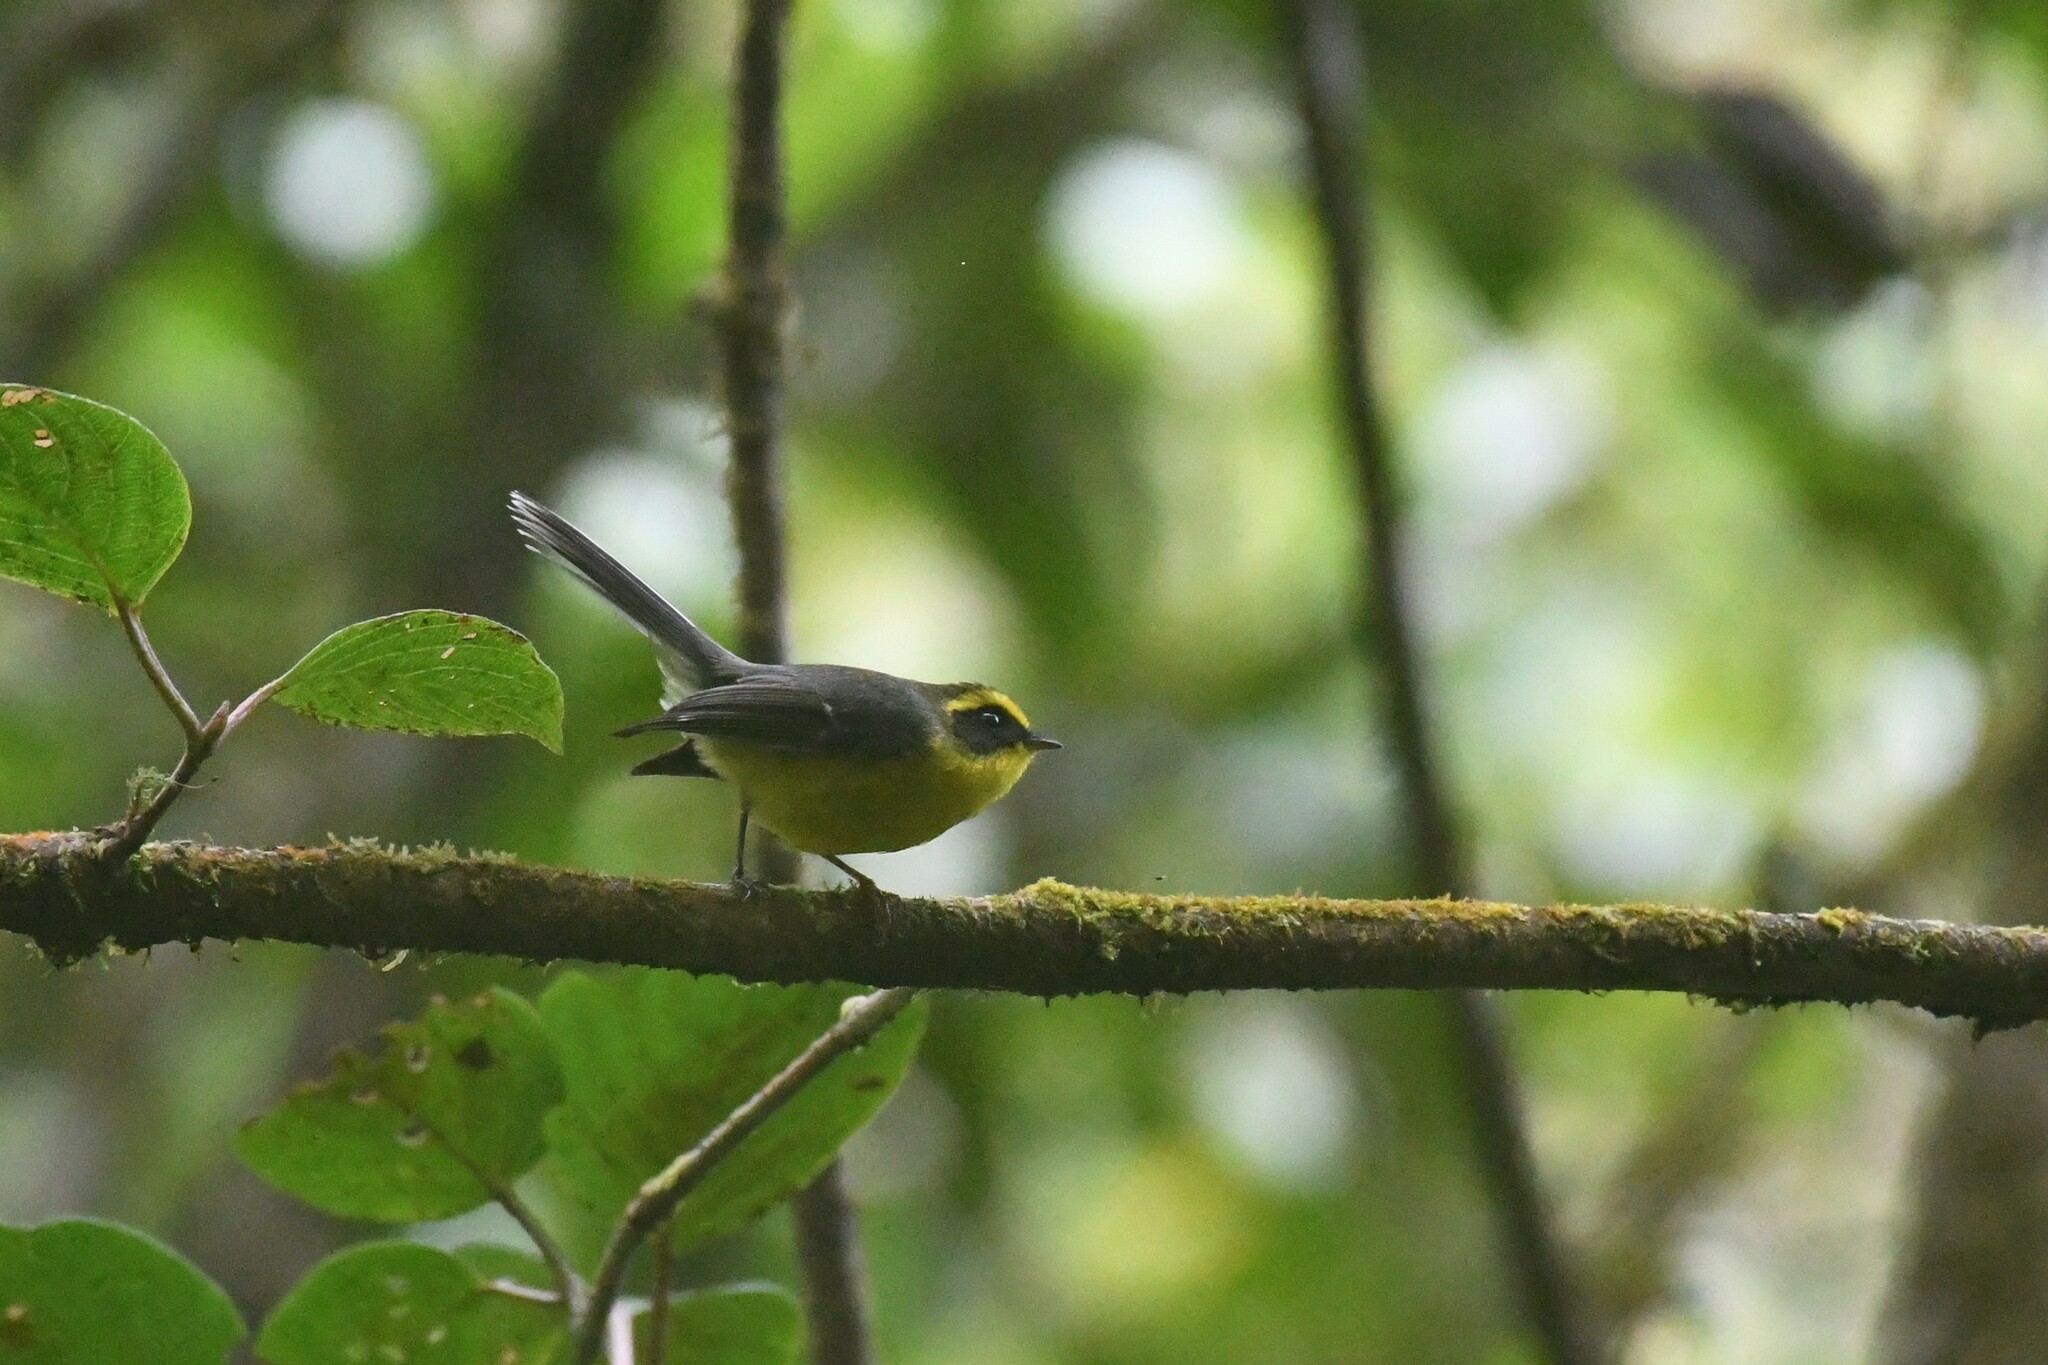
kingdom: Animalia
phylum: Chordata
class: Aves
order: Passeriformes
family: Stenostiridae
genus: Chelidorhynx
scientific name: Chelidorhynx hypoxantha
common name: Yellow-bellied fantail
